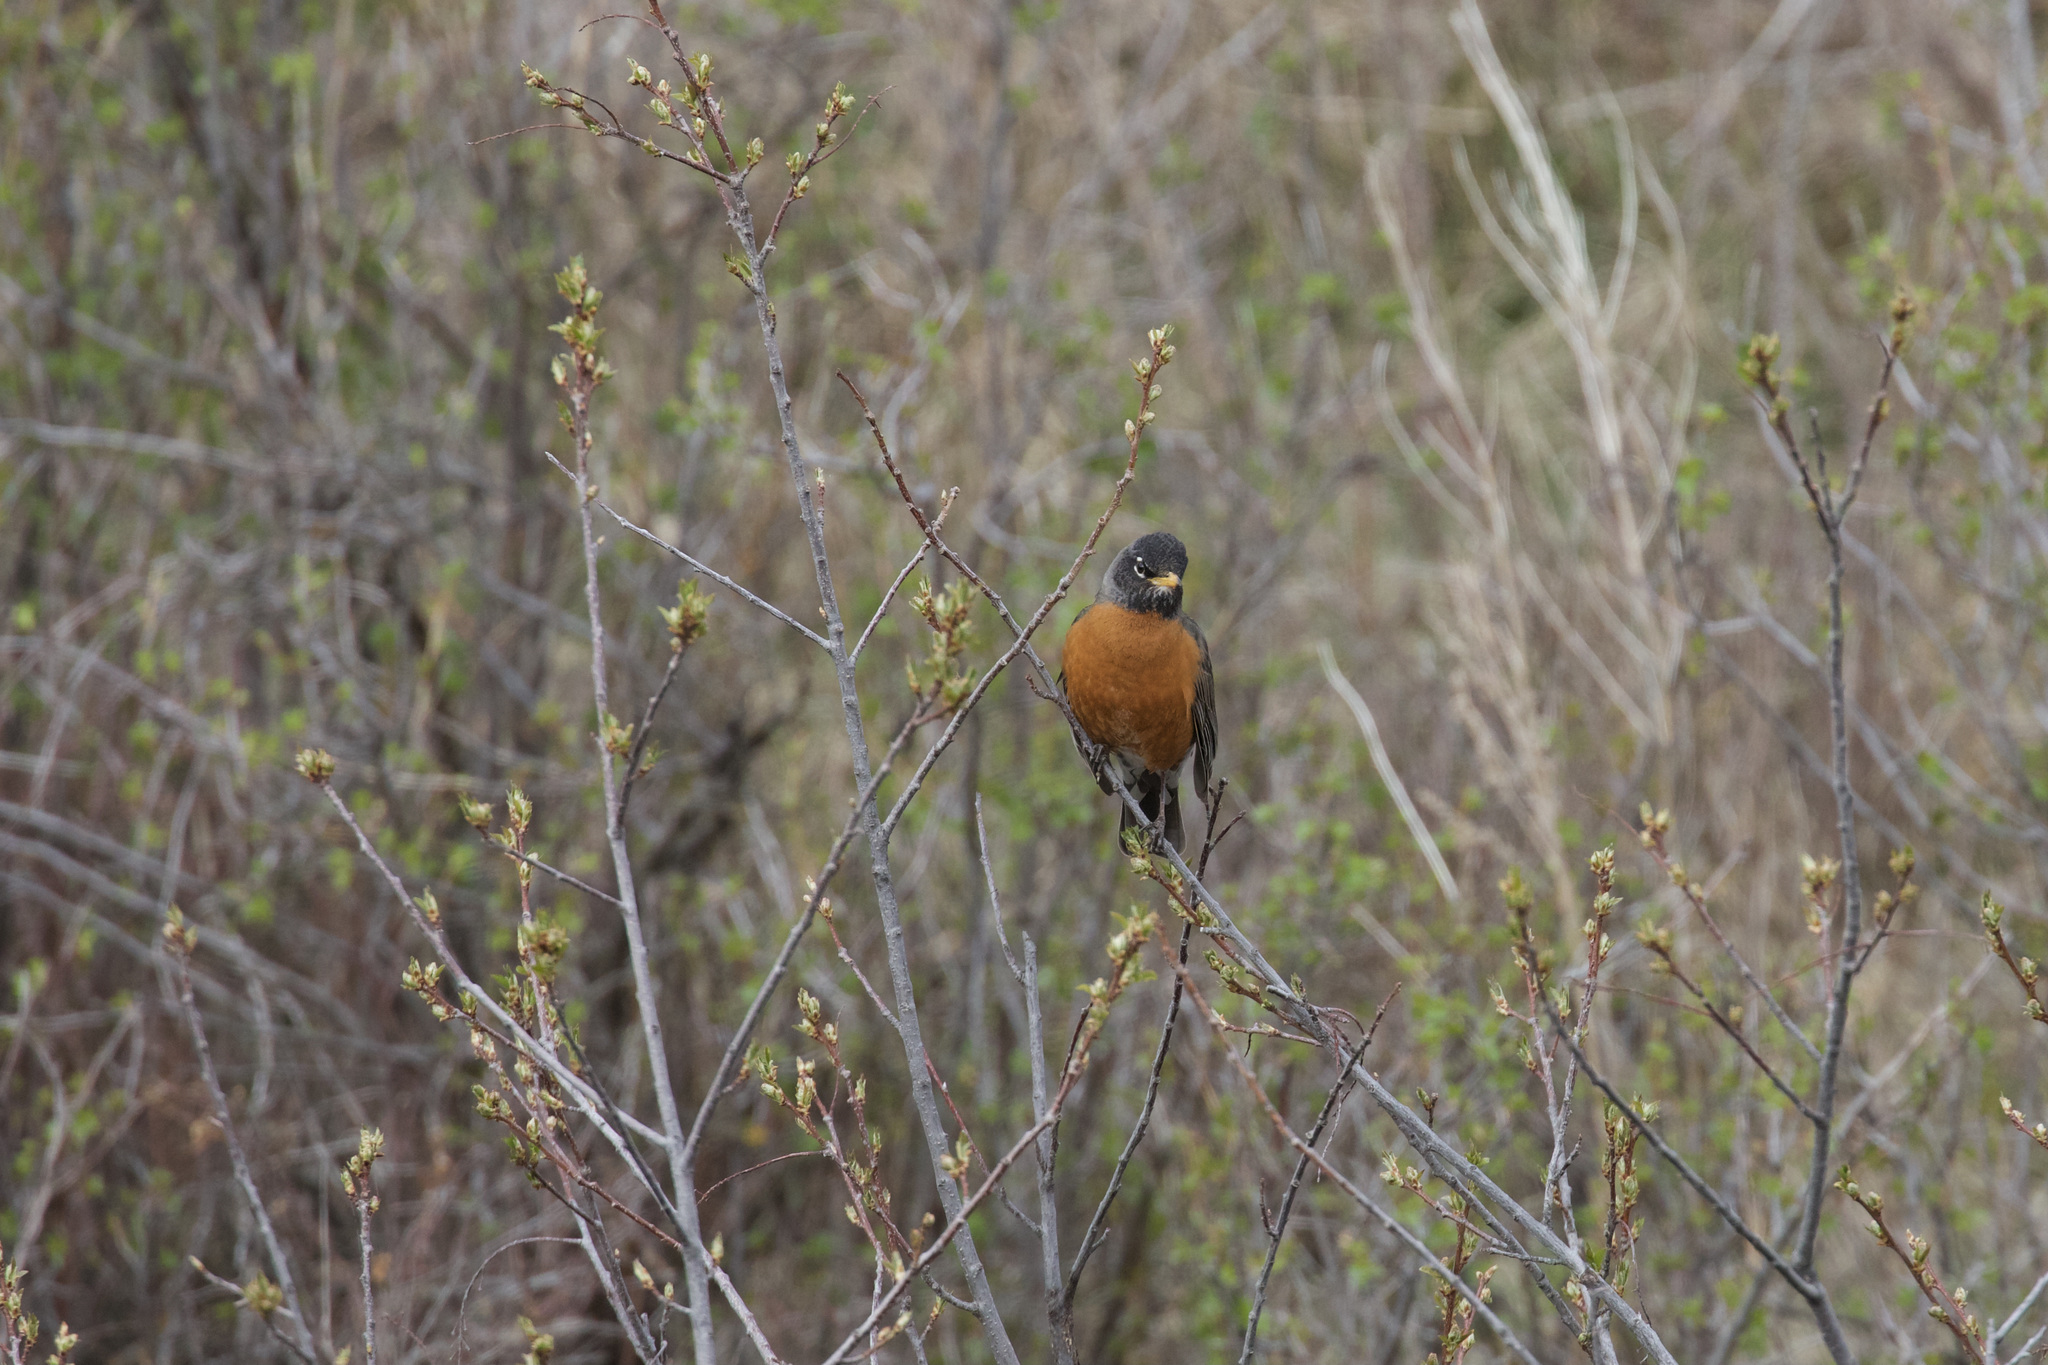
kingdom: Animalia
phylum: Chordata
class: Aves
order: Passeriformes
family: Turdidae
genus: Turdus
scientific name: Turdus migratorius
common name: American robin
